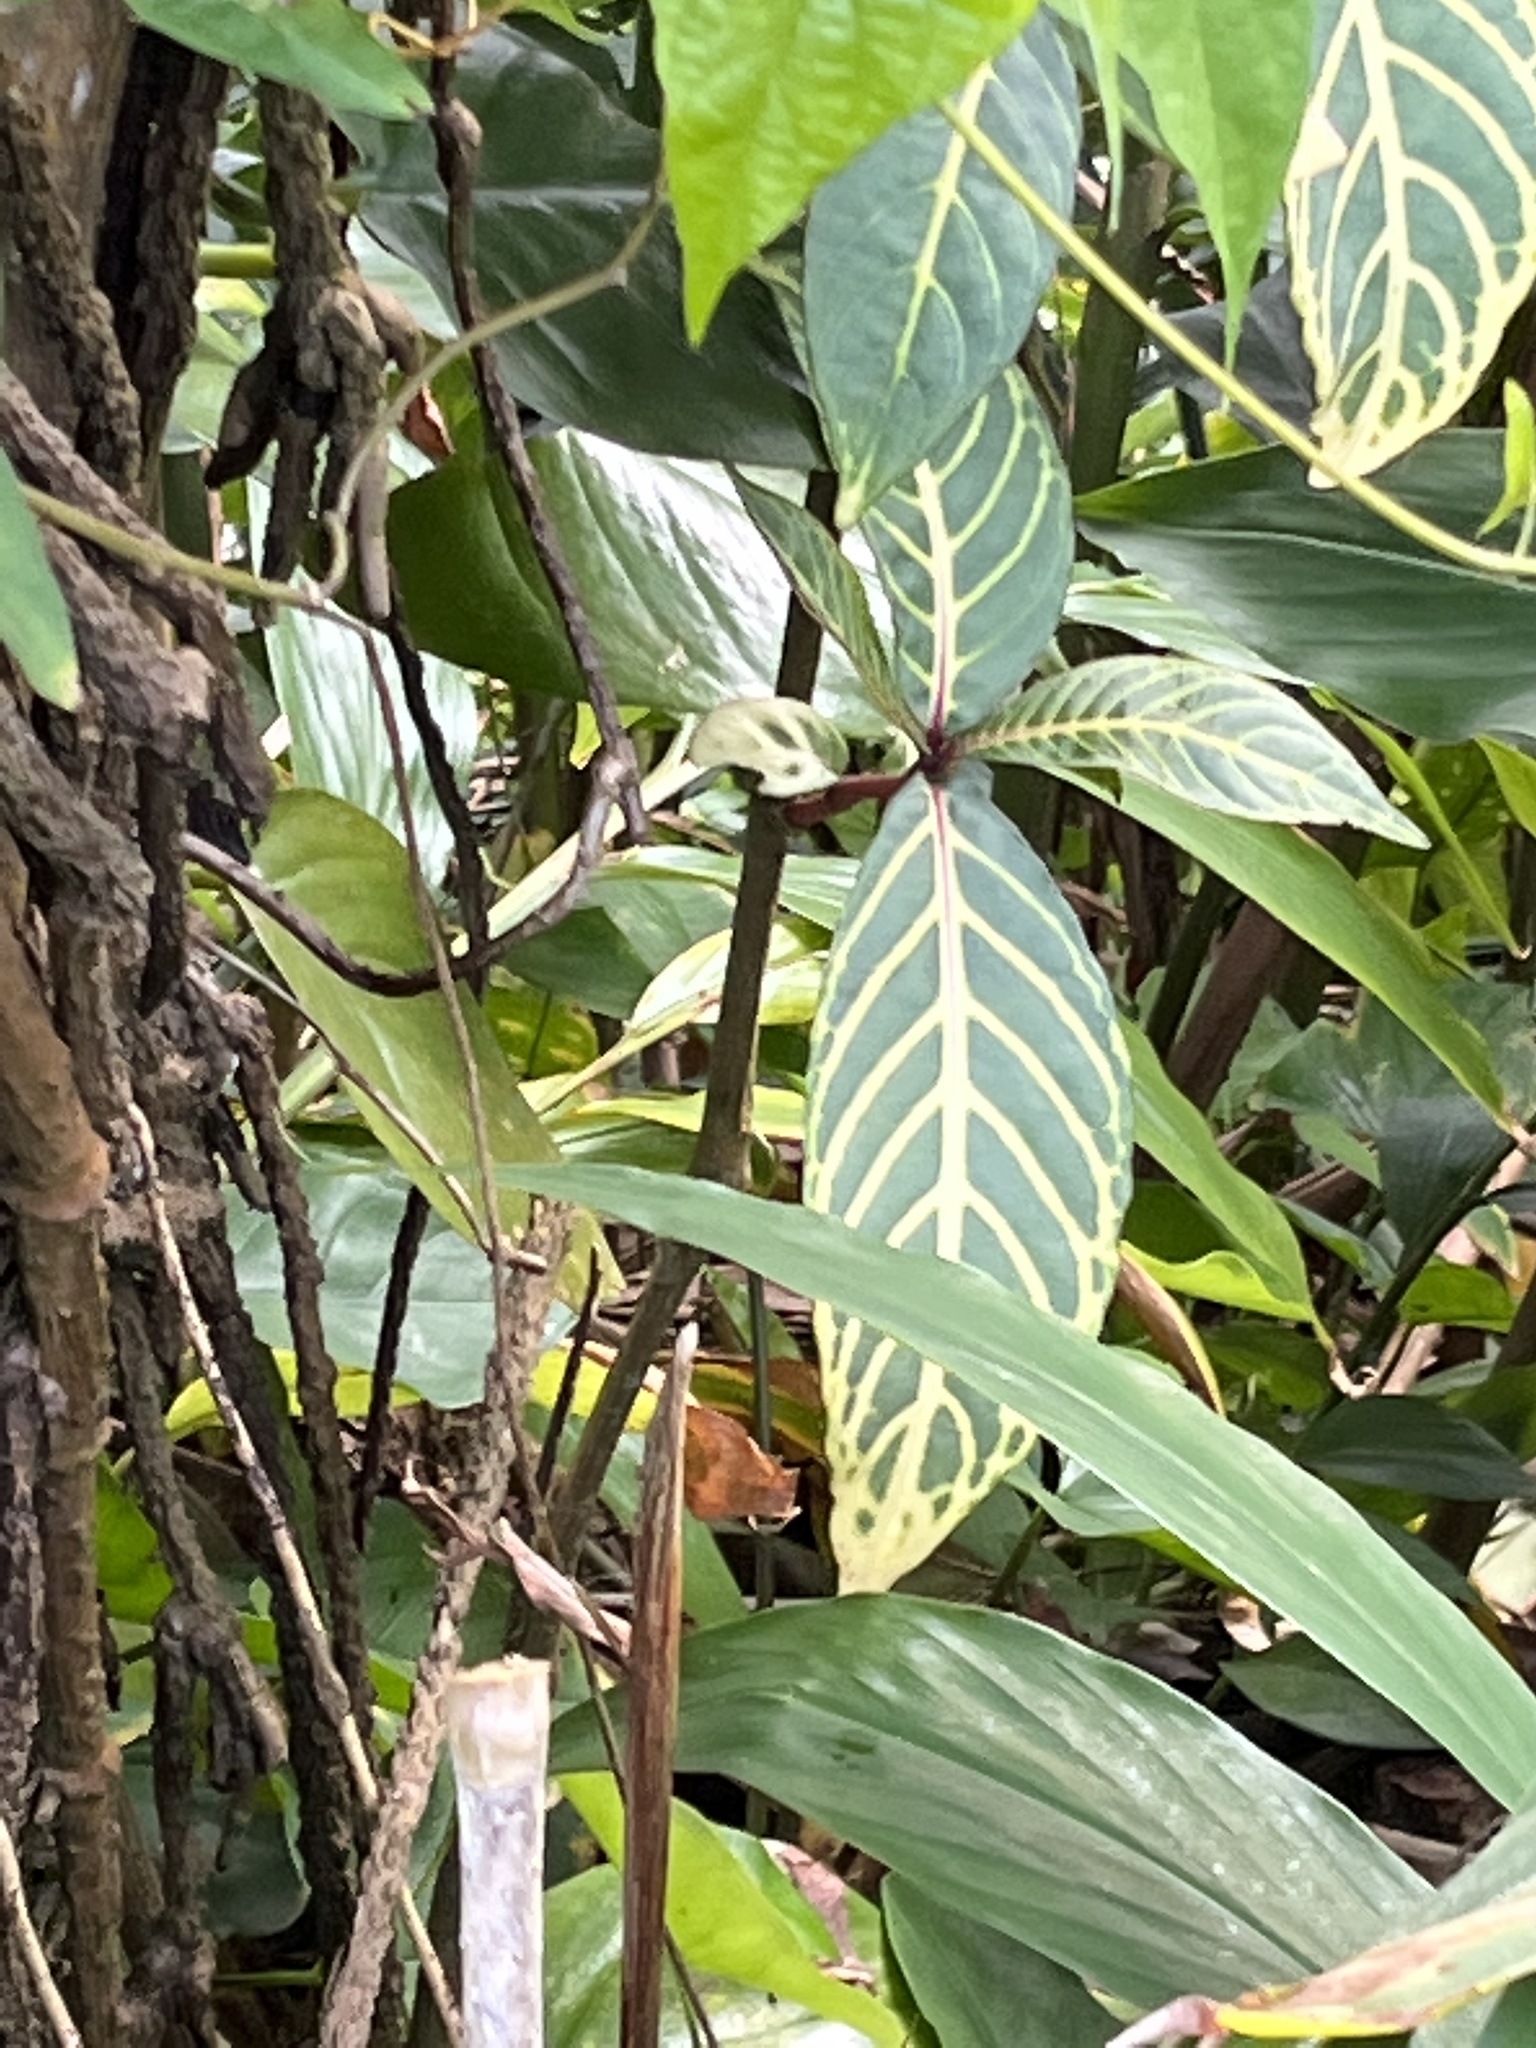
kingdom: Plantae
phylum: Tracheophyta
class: Magnoliopsida
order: Lamiales
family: Acanthaceae
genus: Sanchezia
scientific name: Sanchezia tigrina
